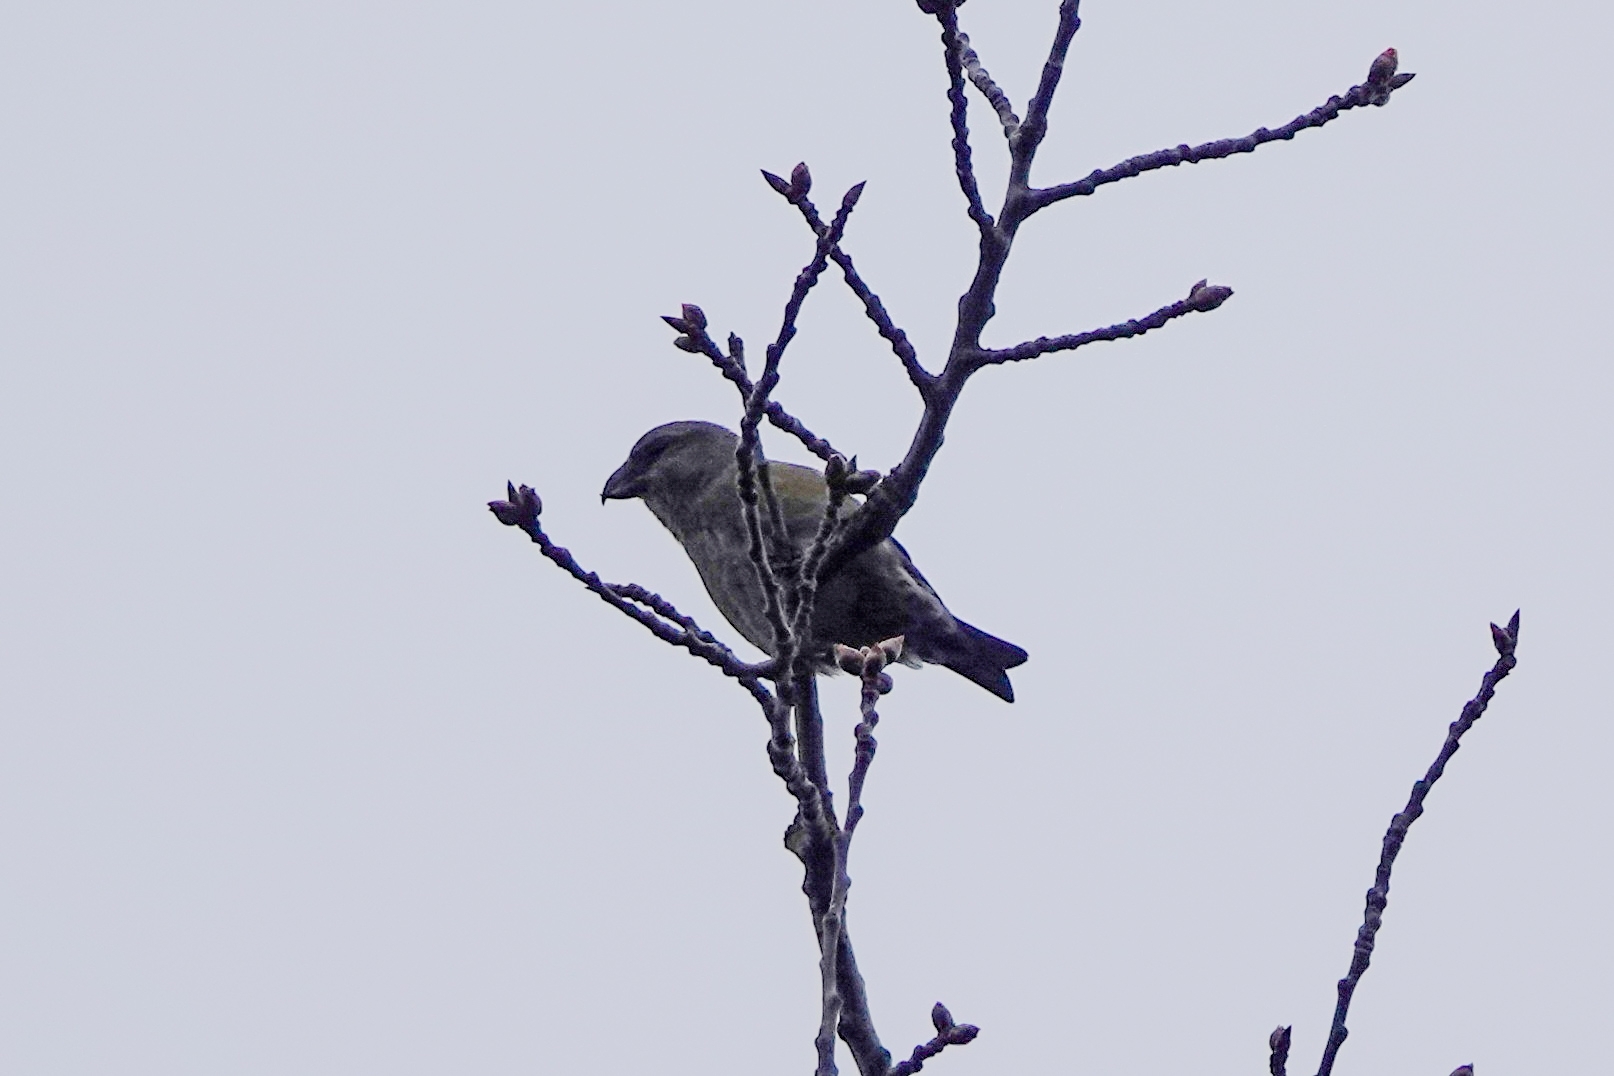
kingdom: Animalia
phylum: Chordata
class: Aves
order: Passeriformes
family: Fringillidae
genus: Loxia
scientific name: Loxia curvirostra
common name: Red crossbill
